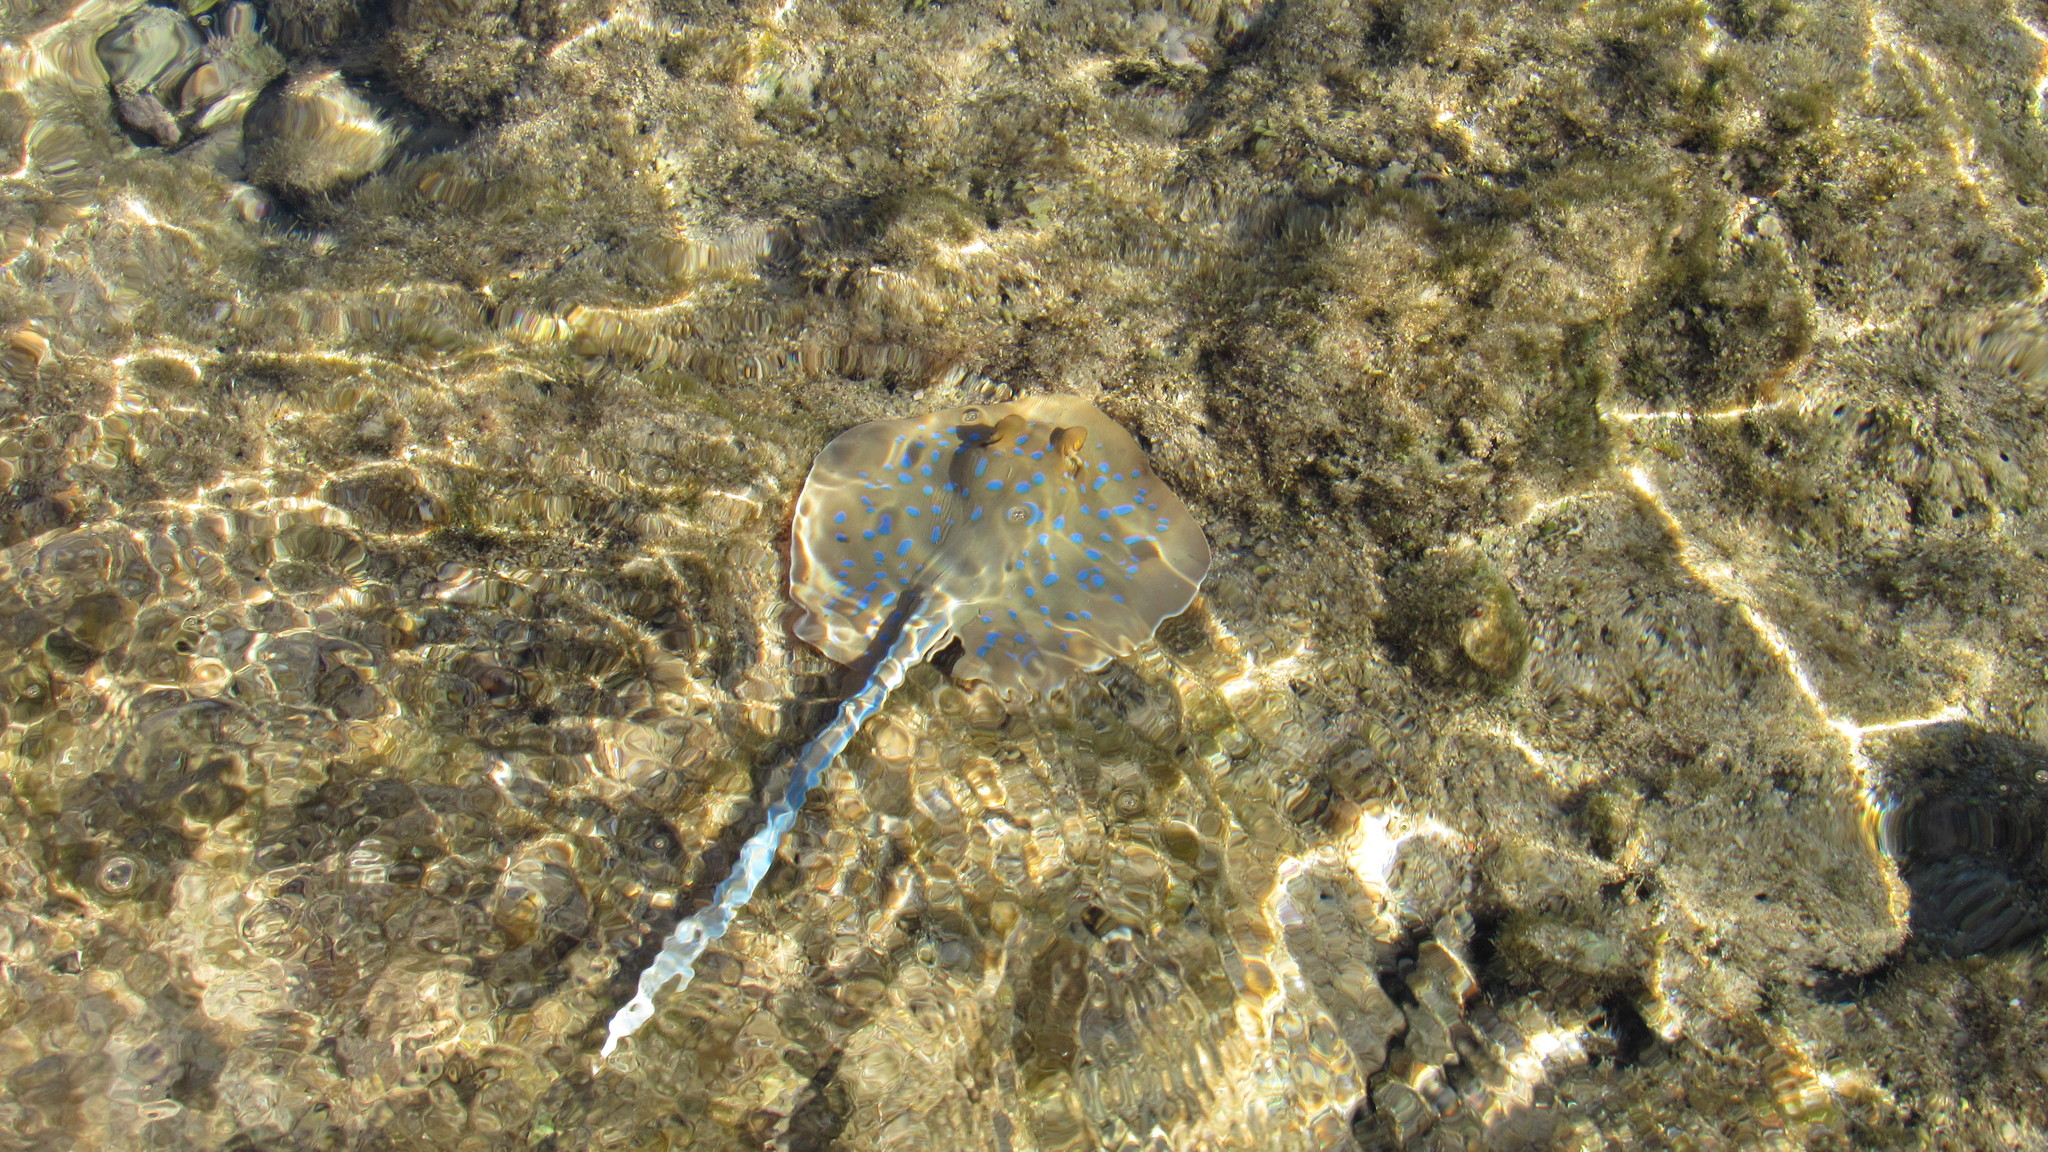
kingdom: Animalia
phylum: Chordata
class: Elasmobranchii
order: Myliobatiformes
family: Dasyatidae
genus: Taeniura
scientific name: Taeniura lymma
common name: Bluespotted ribbontail ray
